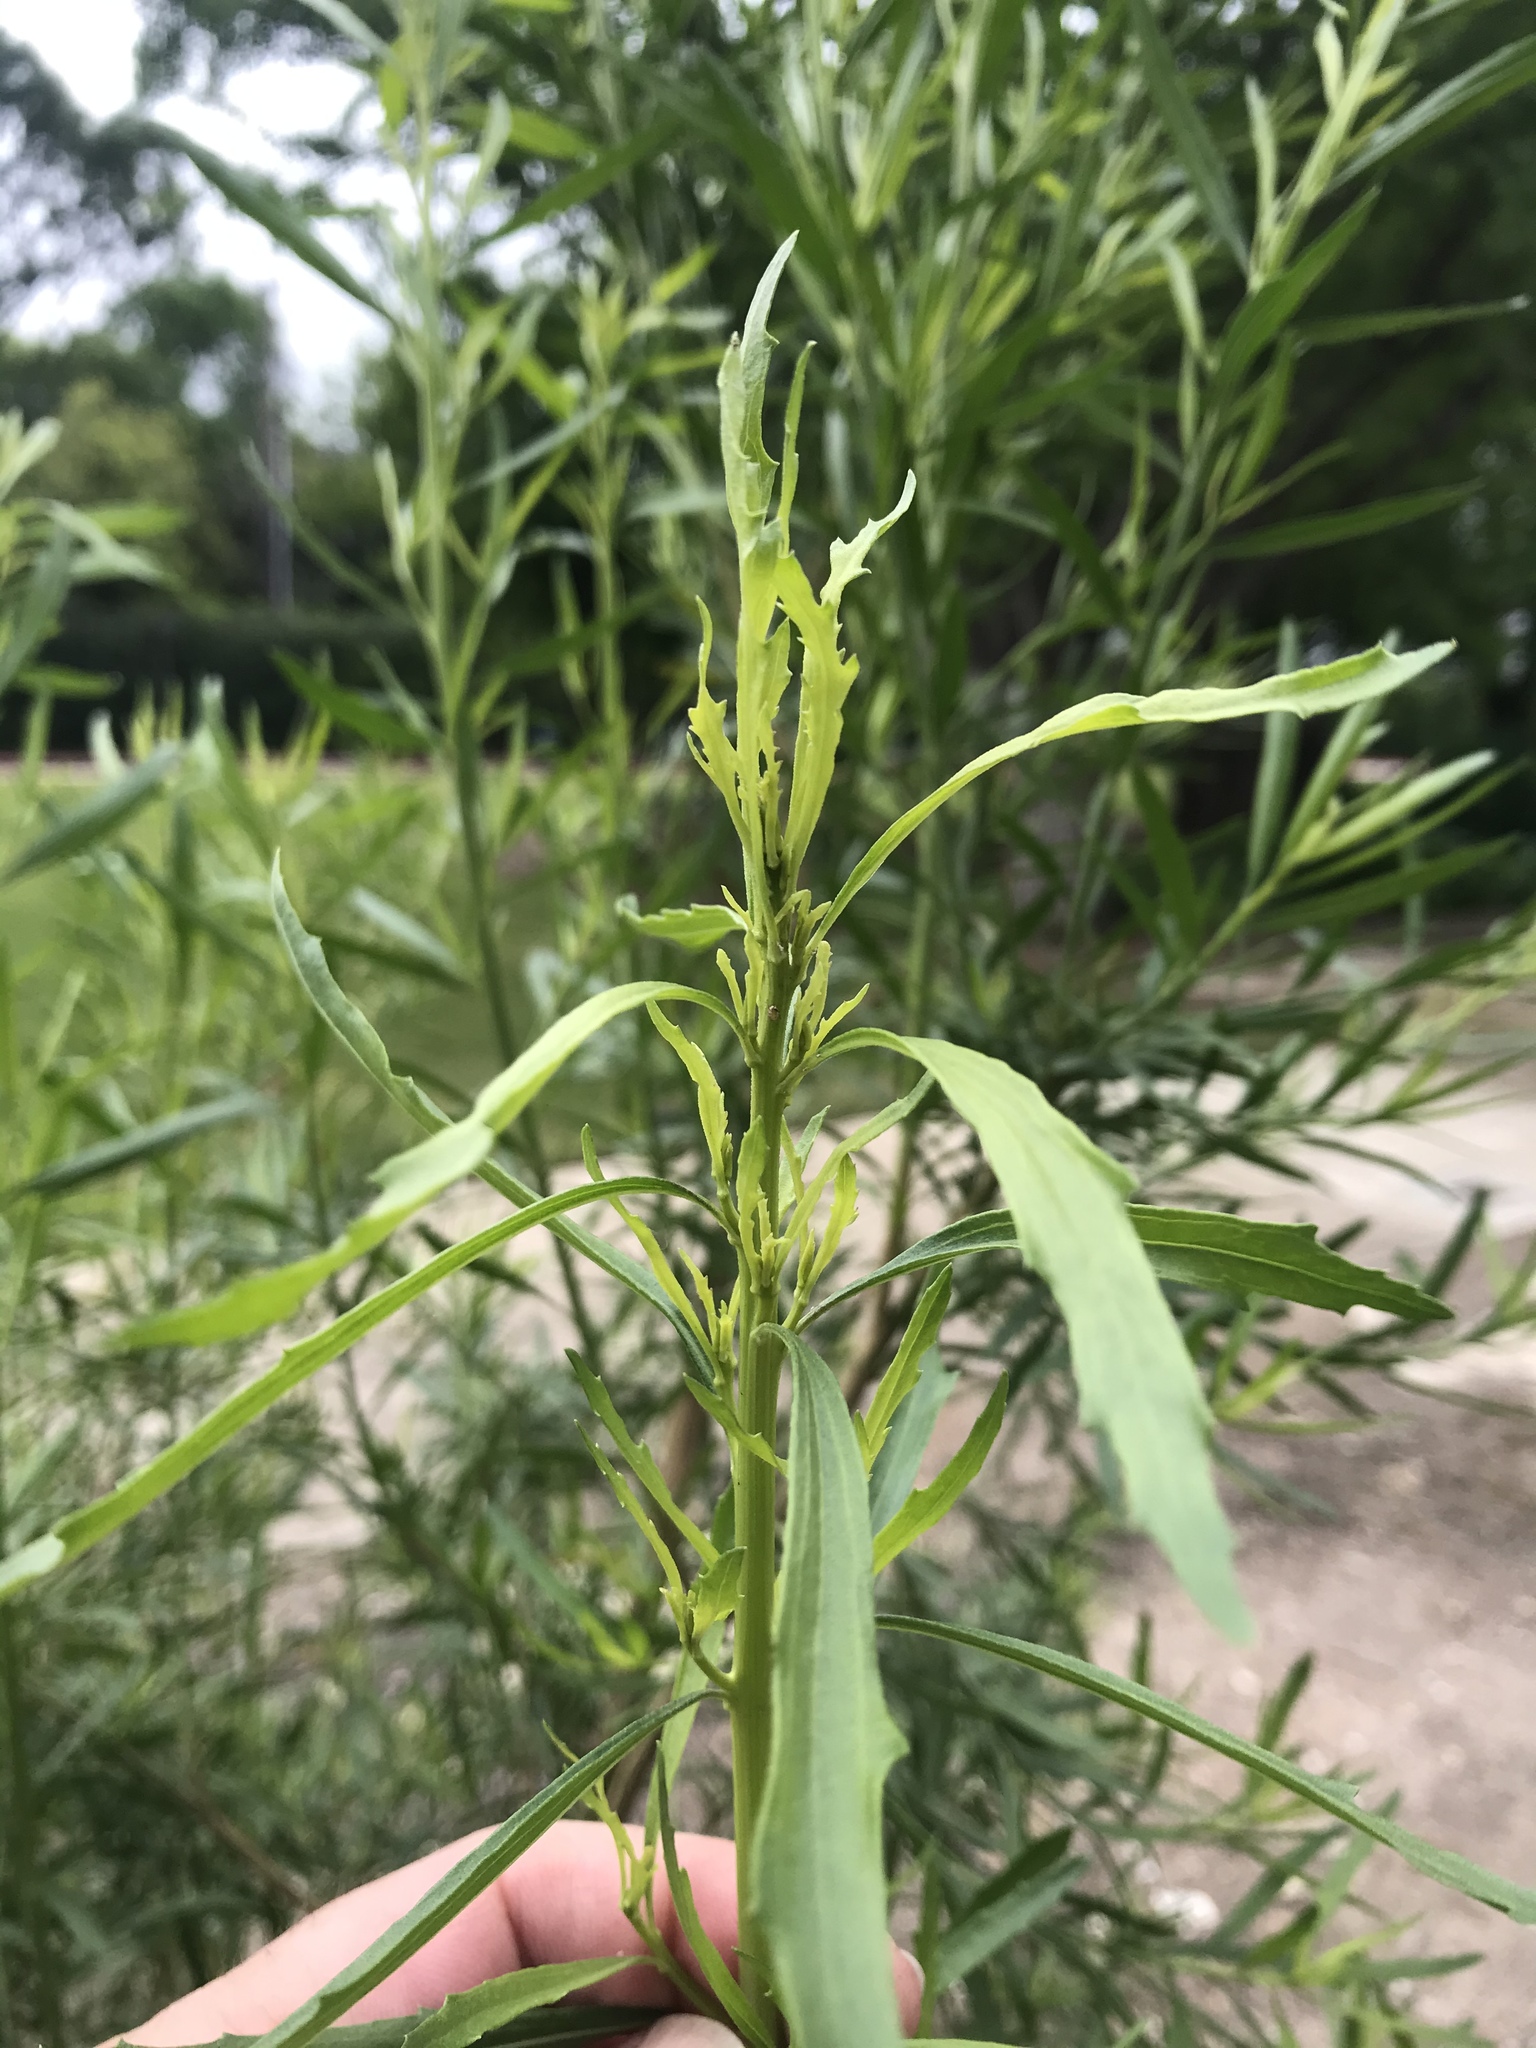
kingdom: Plantae
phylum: Tracheophyta
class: Magnoliopsida
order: Asterales
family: Asteraceae
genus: Baccharis
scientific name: Baccharis neglecta
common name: Roosevelt-weed
